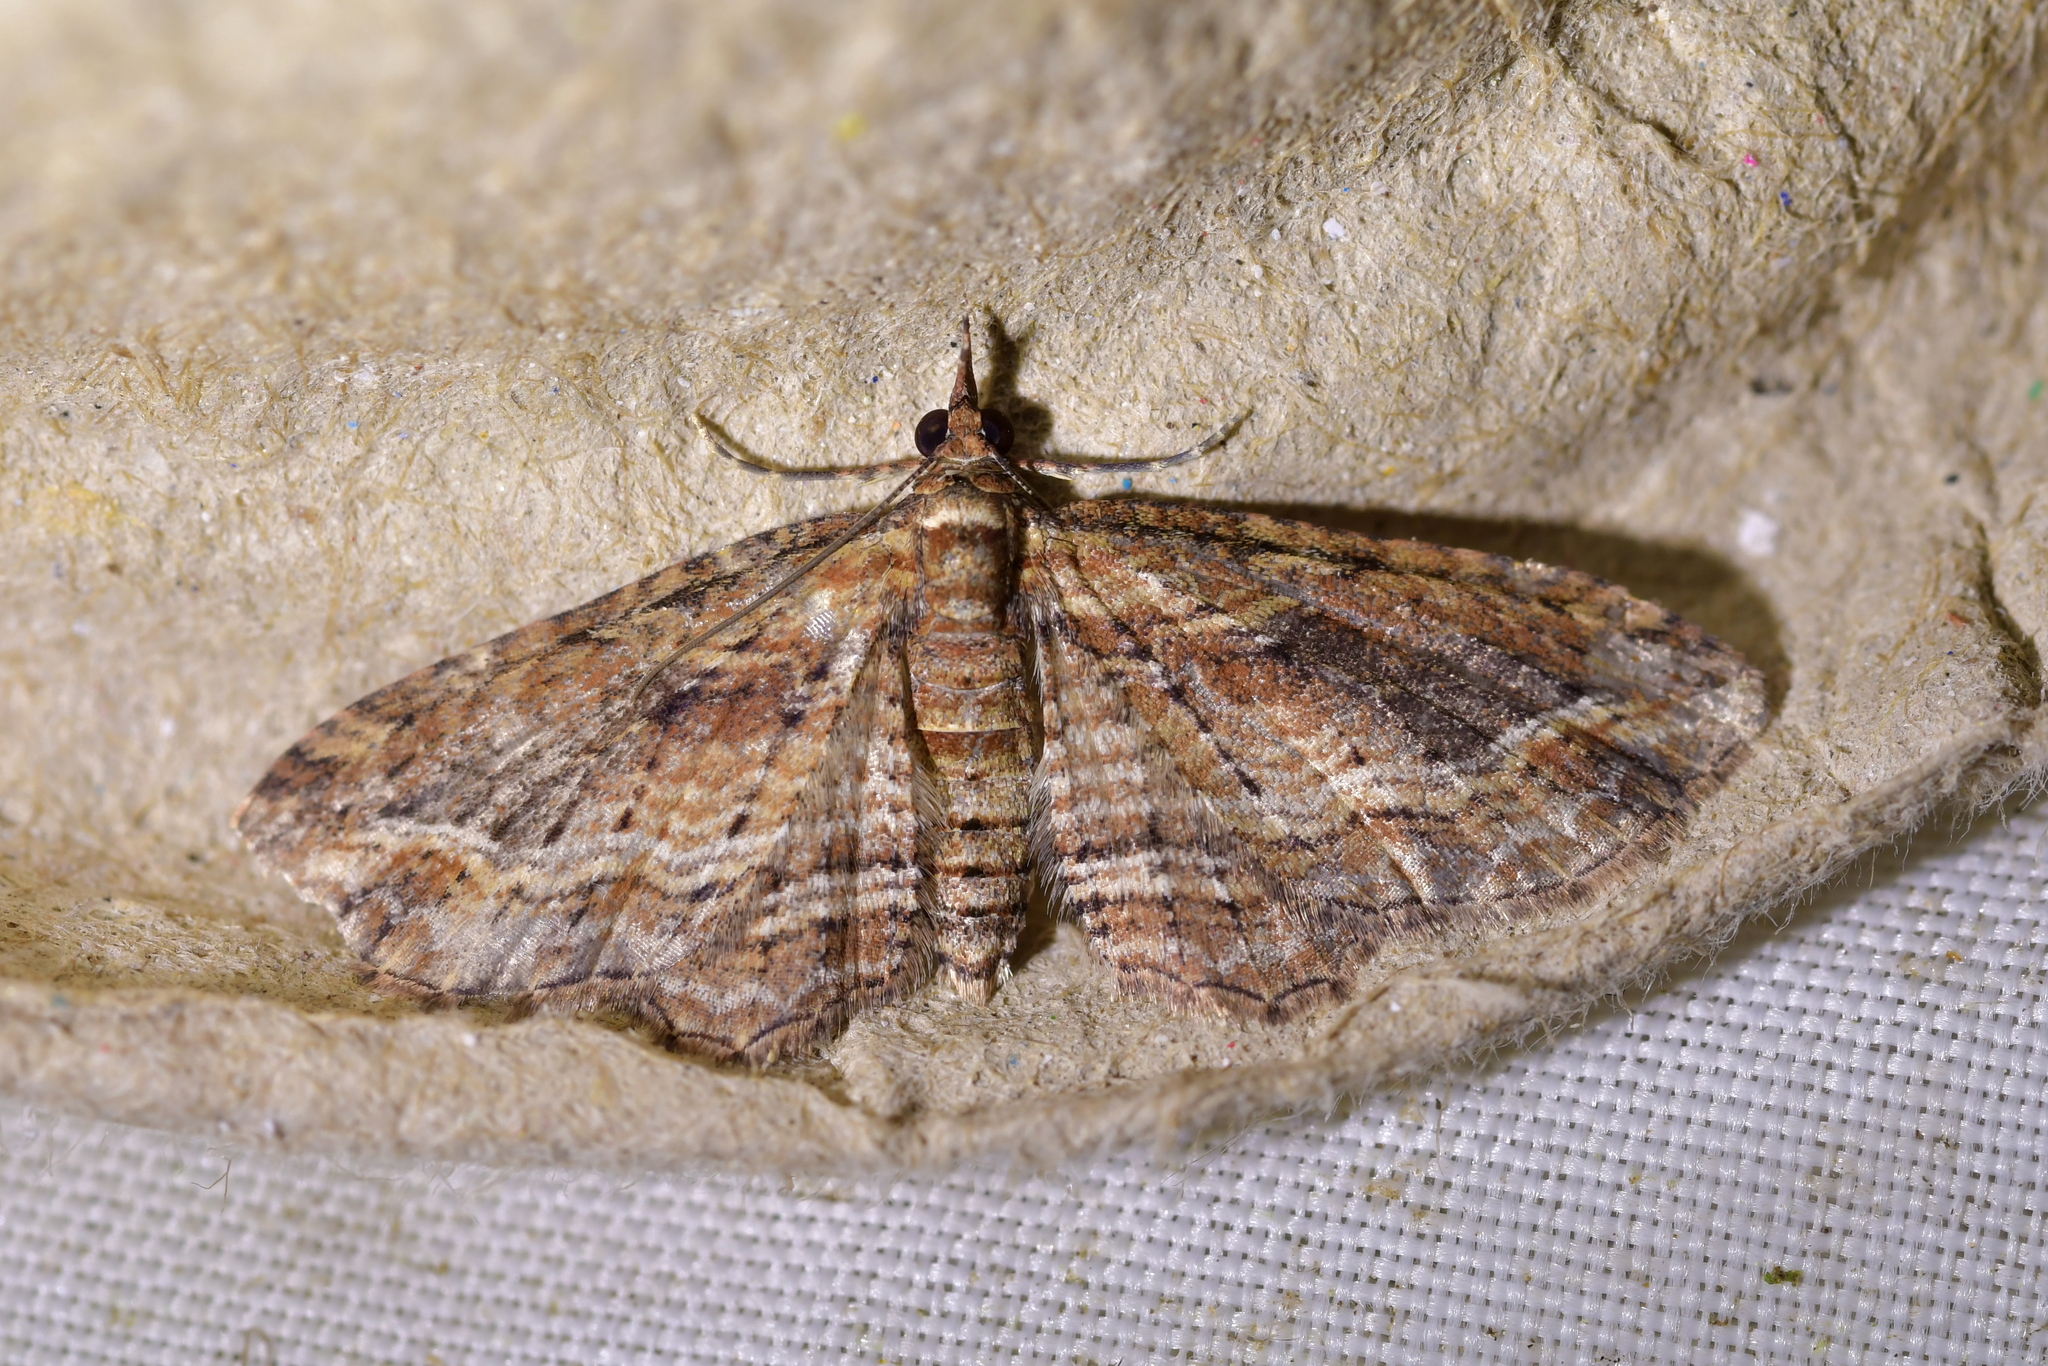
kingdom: Animalia
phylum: Arthropoda
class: Insecta
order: Lepidoptera
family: Geometridae
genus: Chloroclystis
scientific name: Chloroclystis filata
